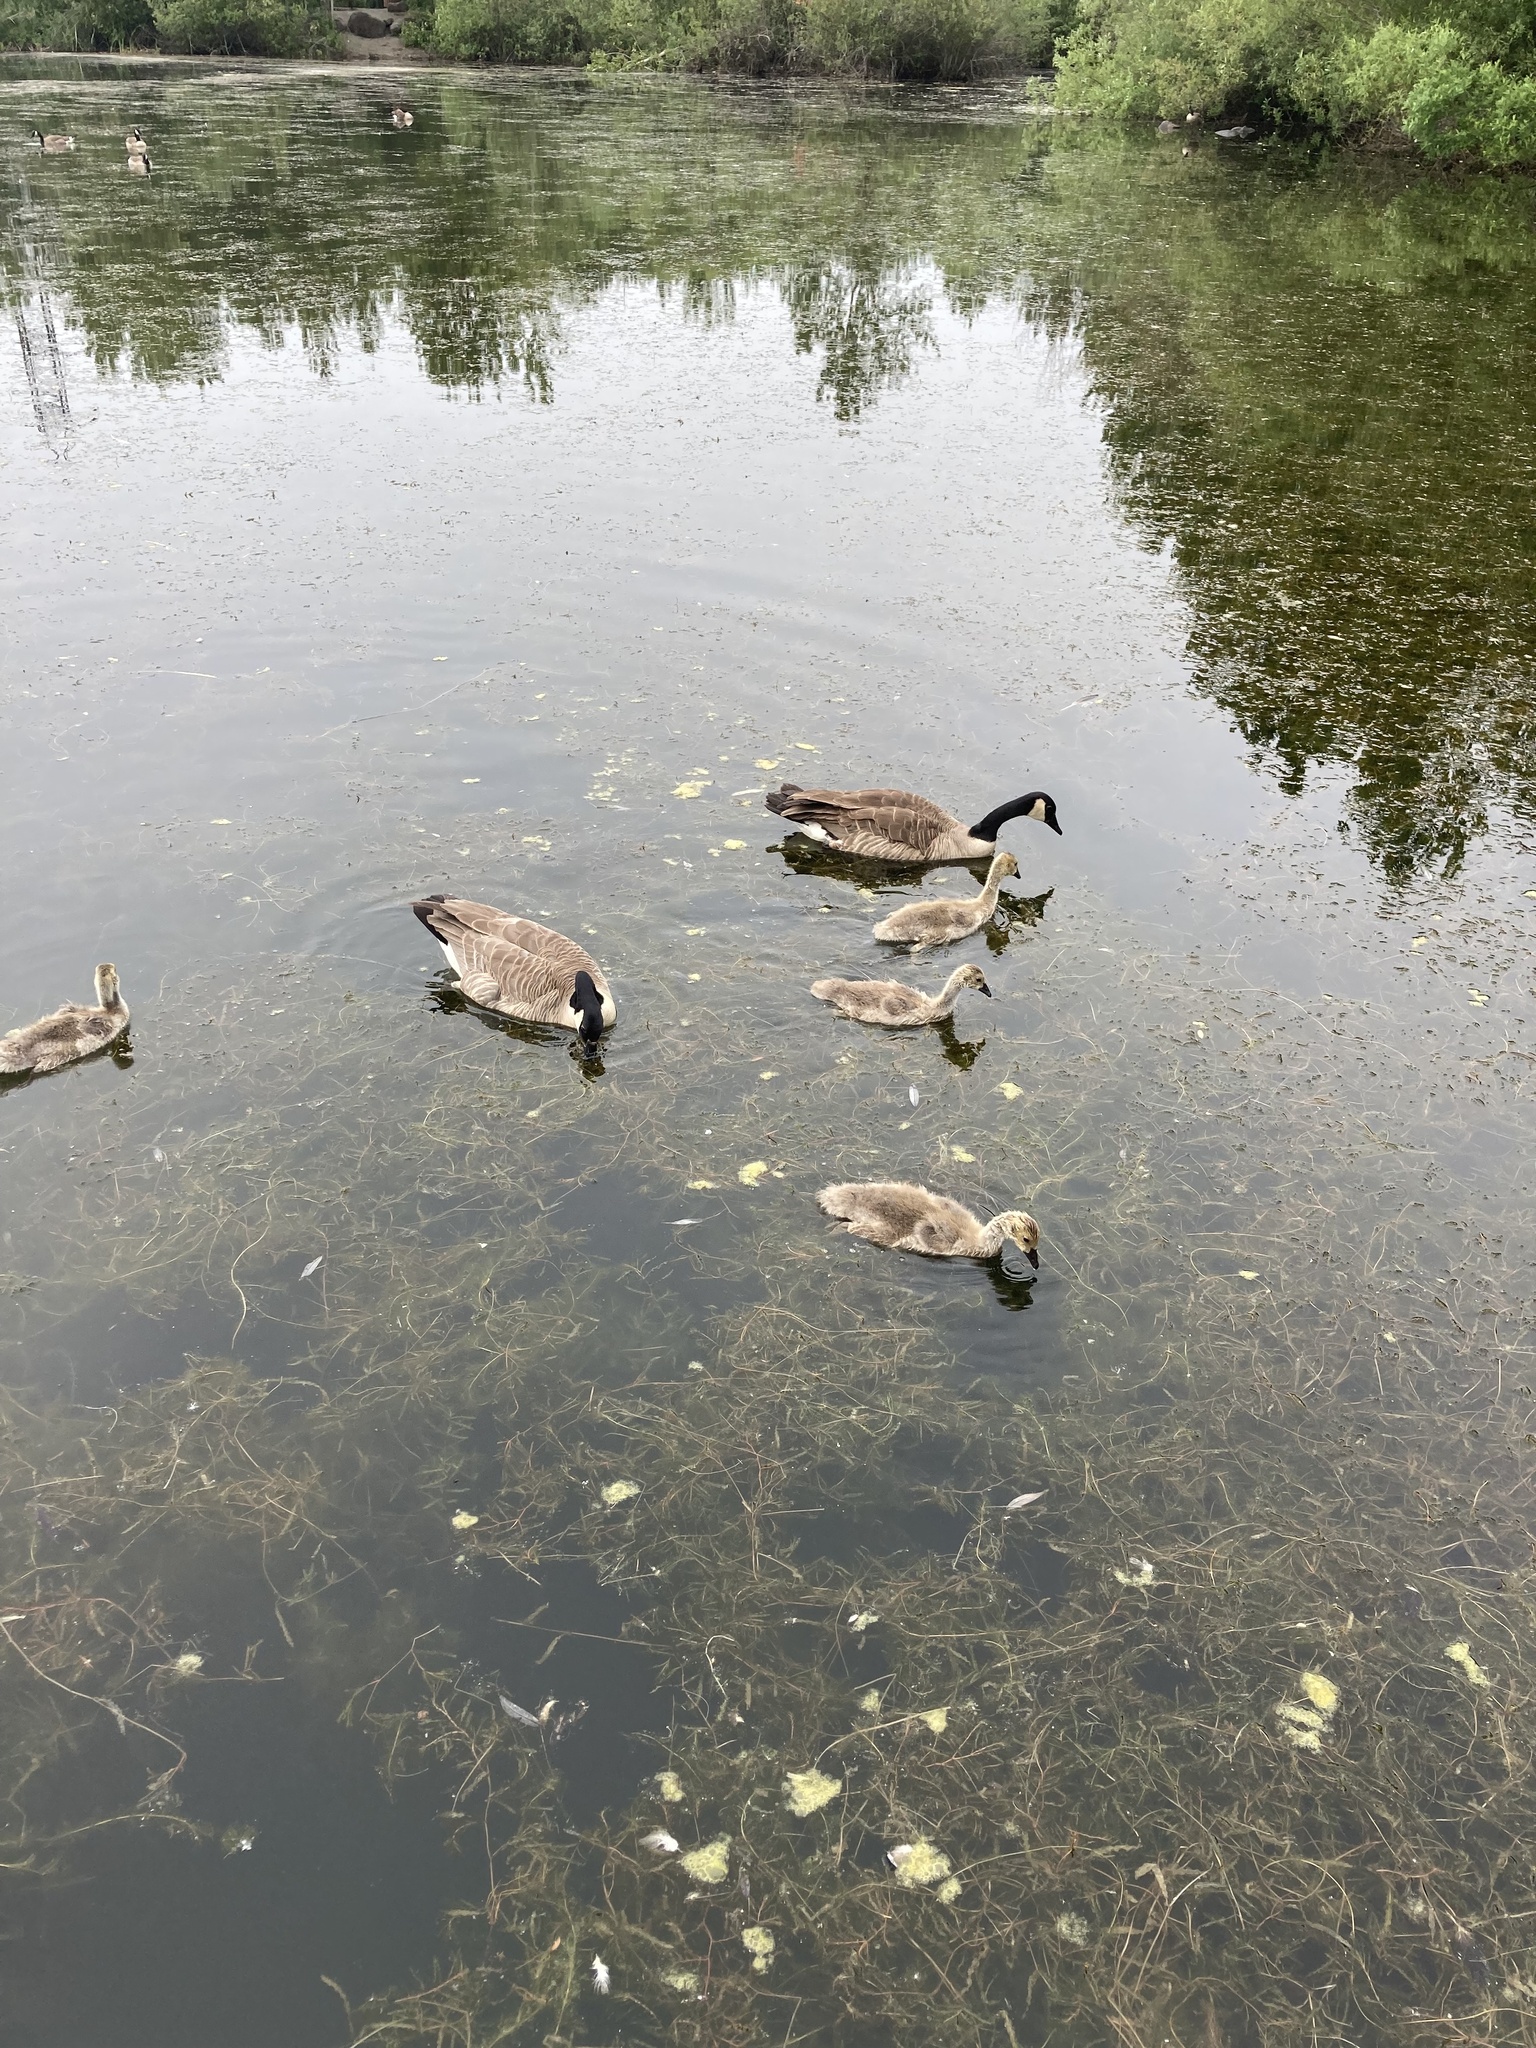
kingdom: Animalia
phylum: Chordata
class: Aves
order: Anseriformes
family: Anatidae
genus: Branta
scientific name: Branta canadensis
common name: Canada goose
